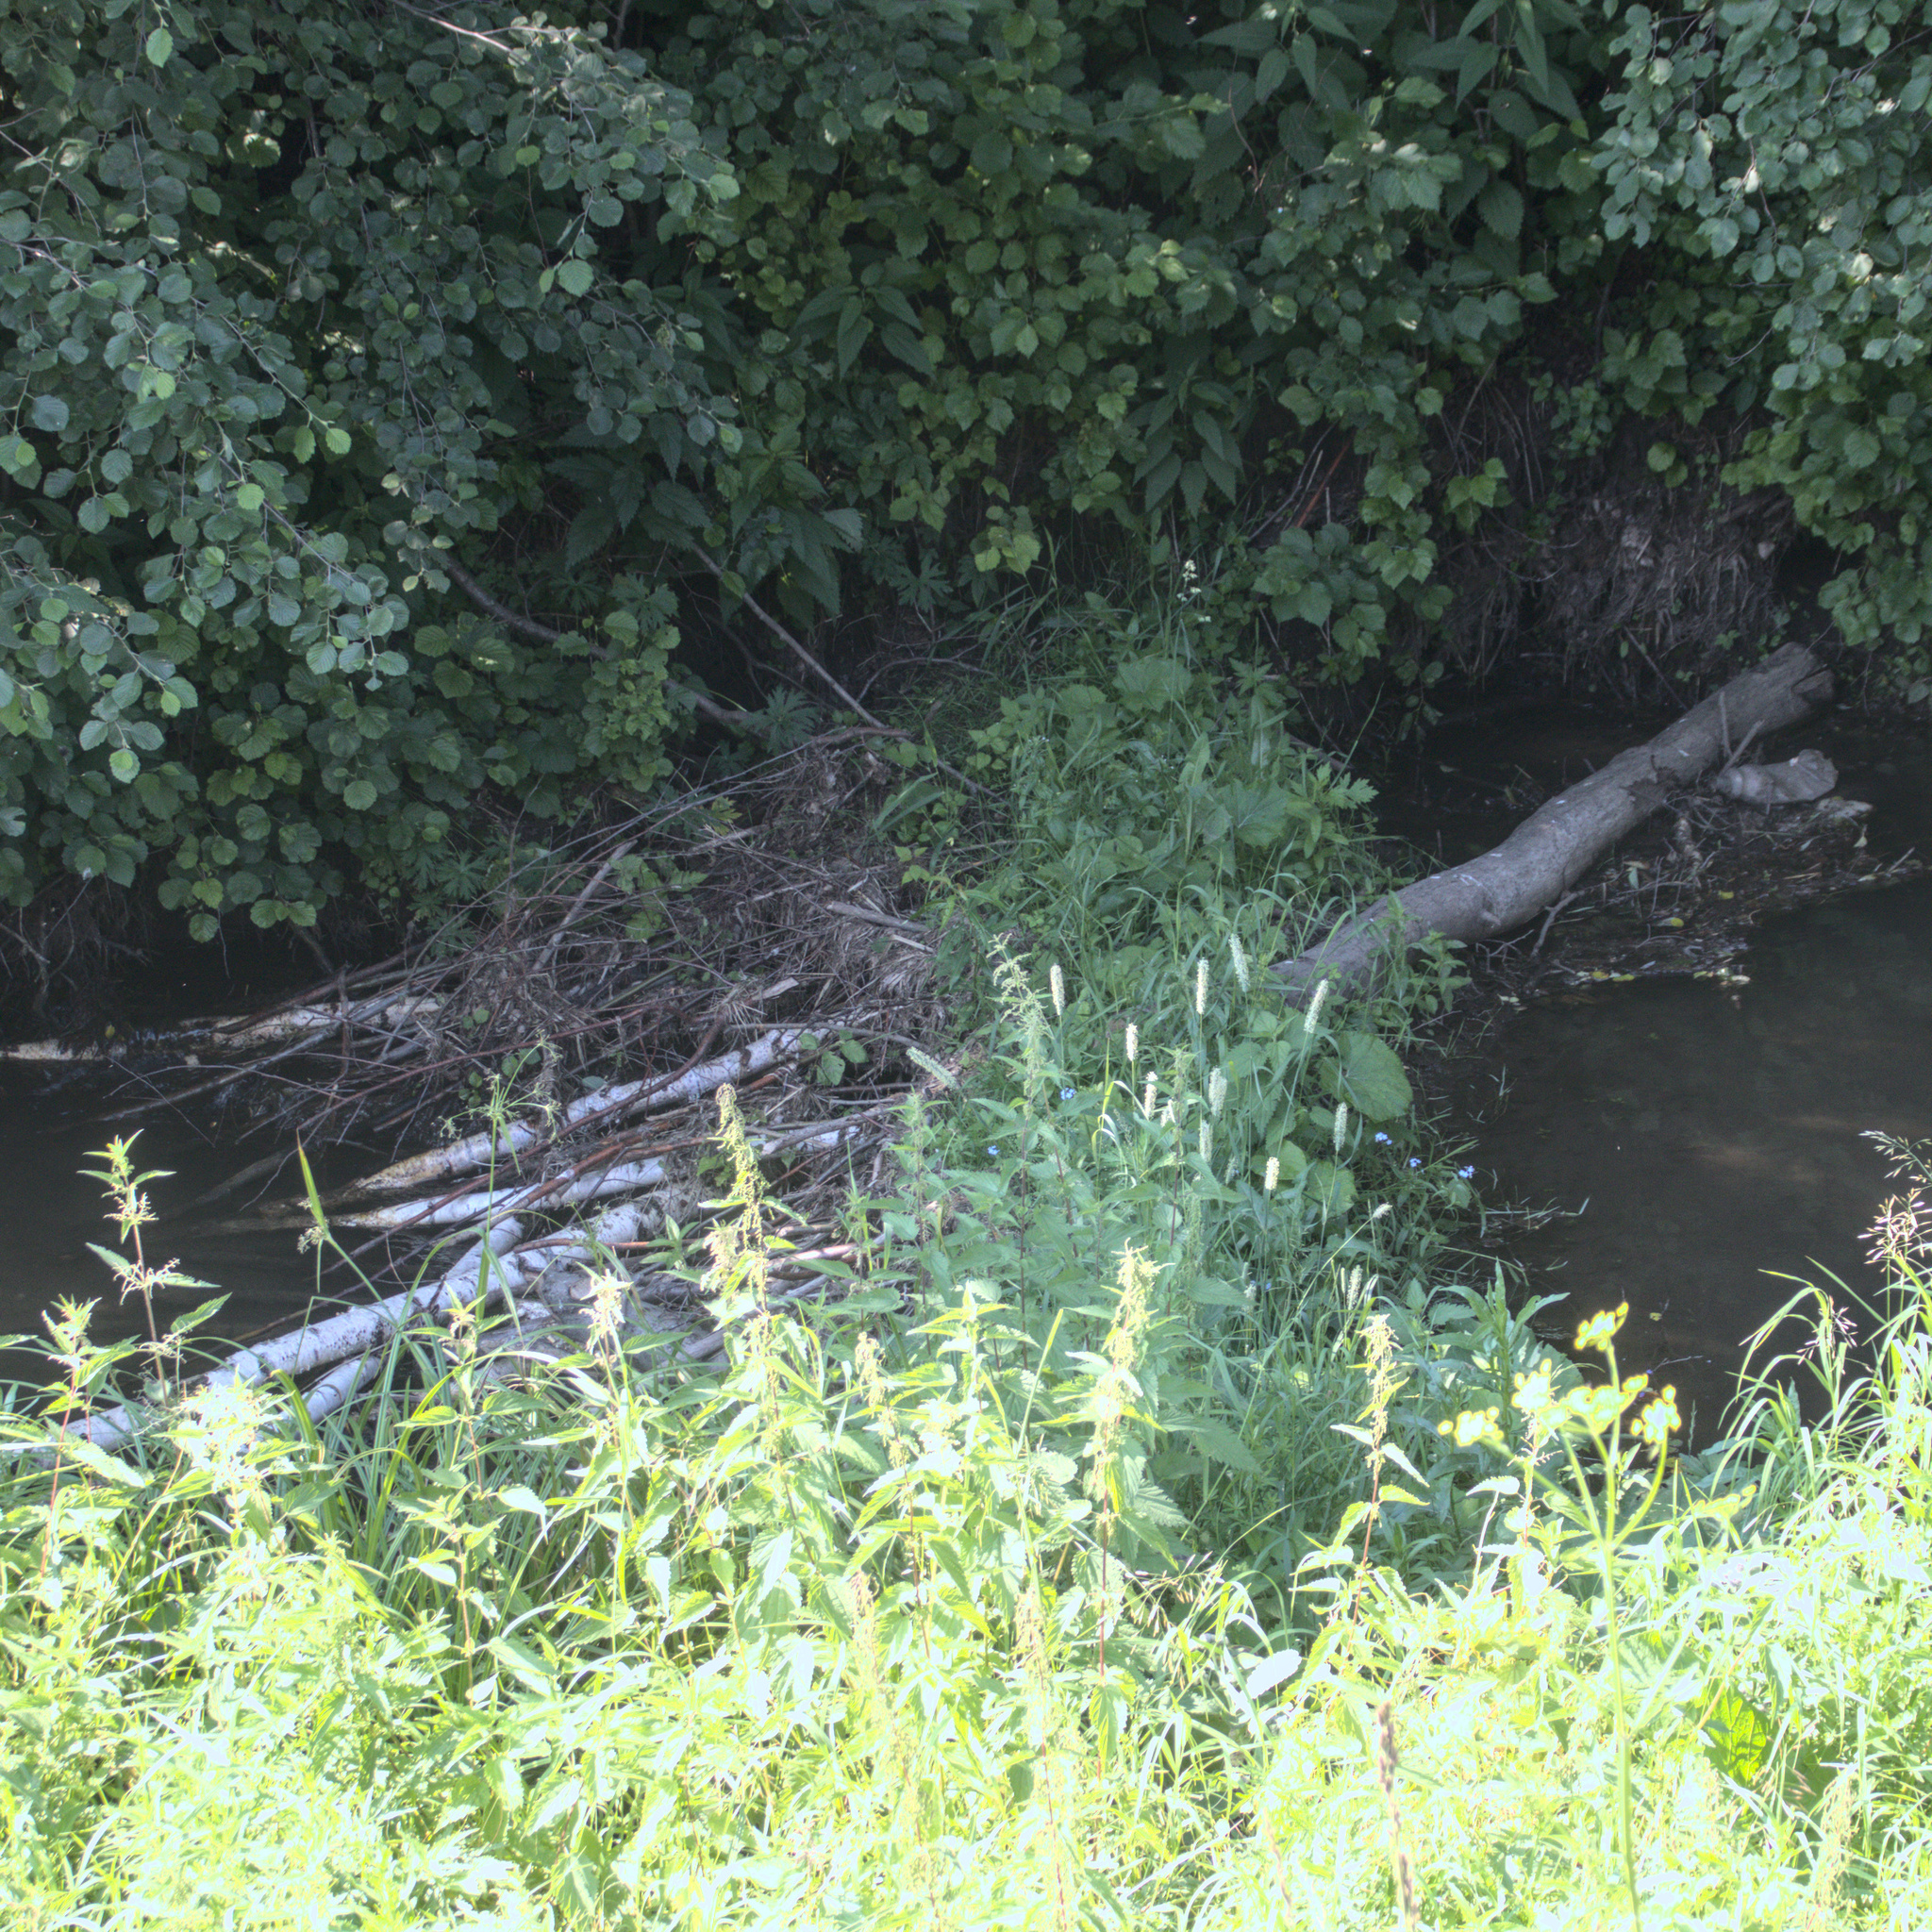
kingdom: Animalia
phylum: Chordata
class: Mammalia
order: Rodentia
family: Castoridae
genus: Castor
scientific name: Castor fiber
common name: Eurasian beaver
